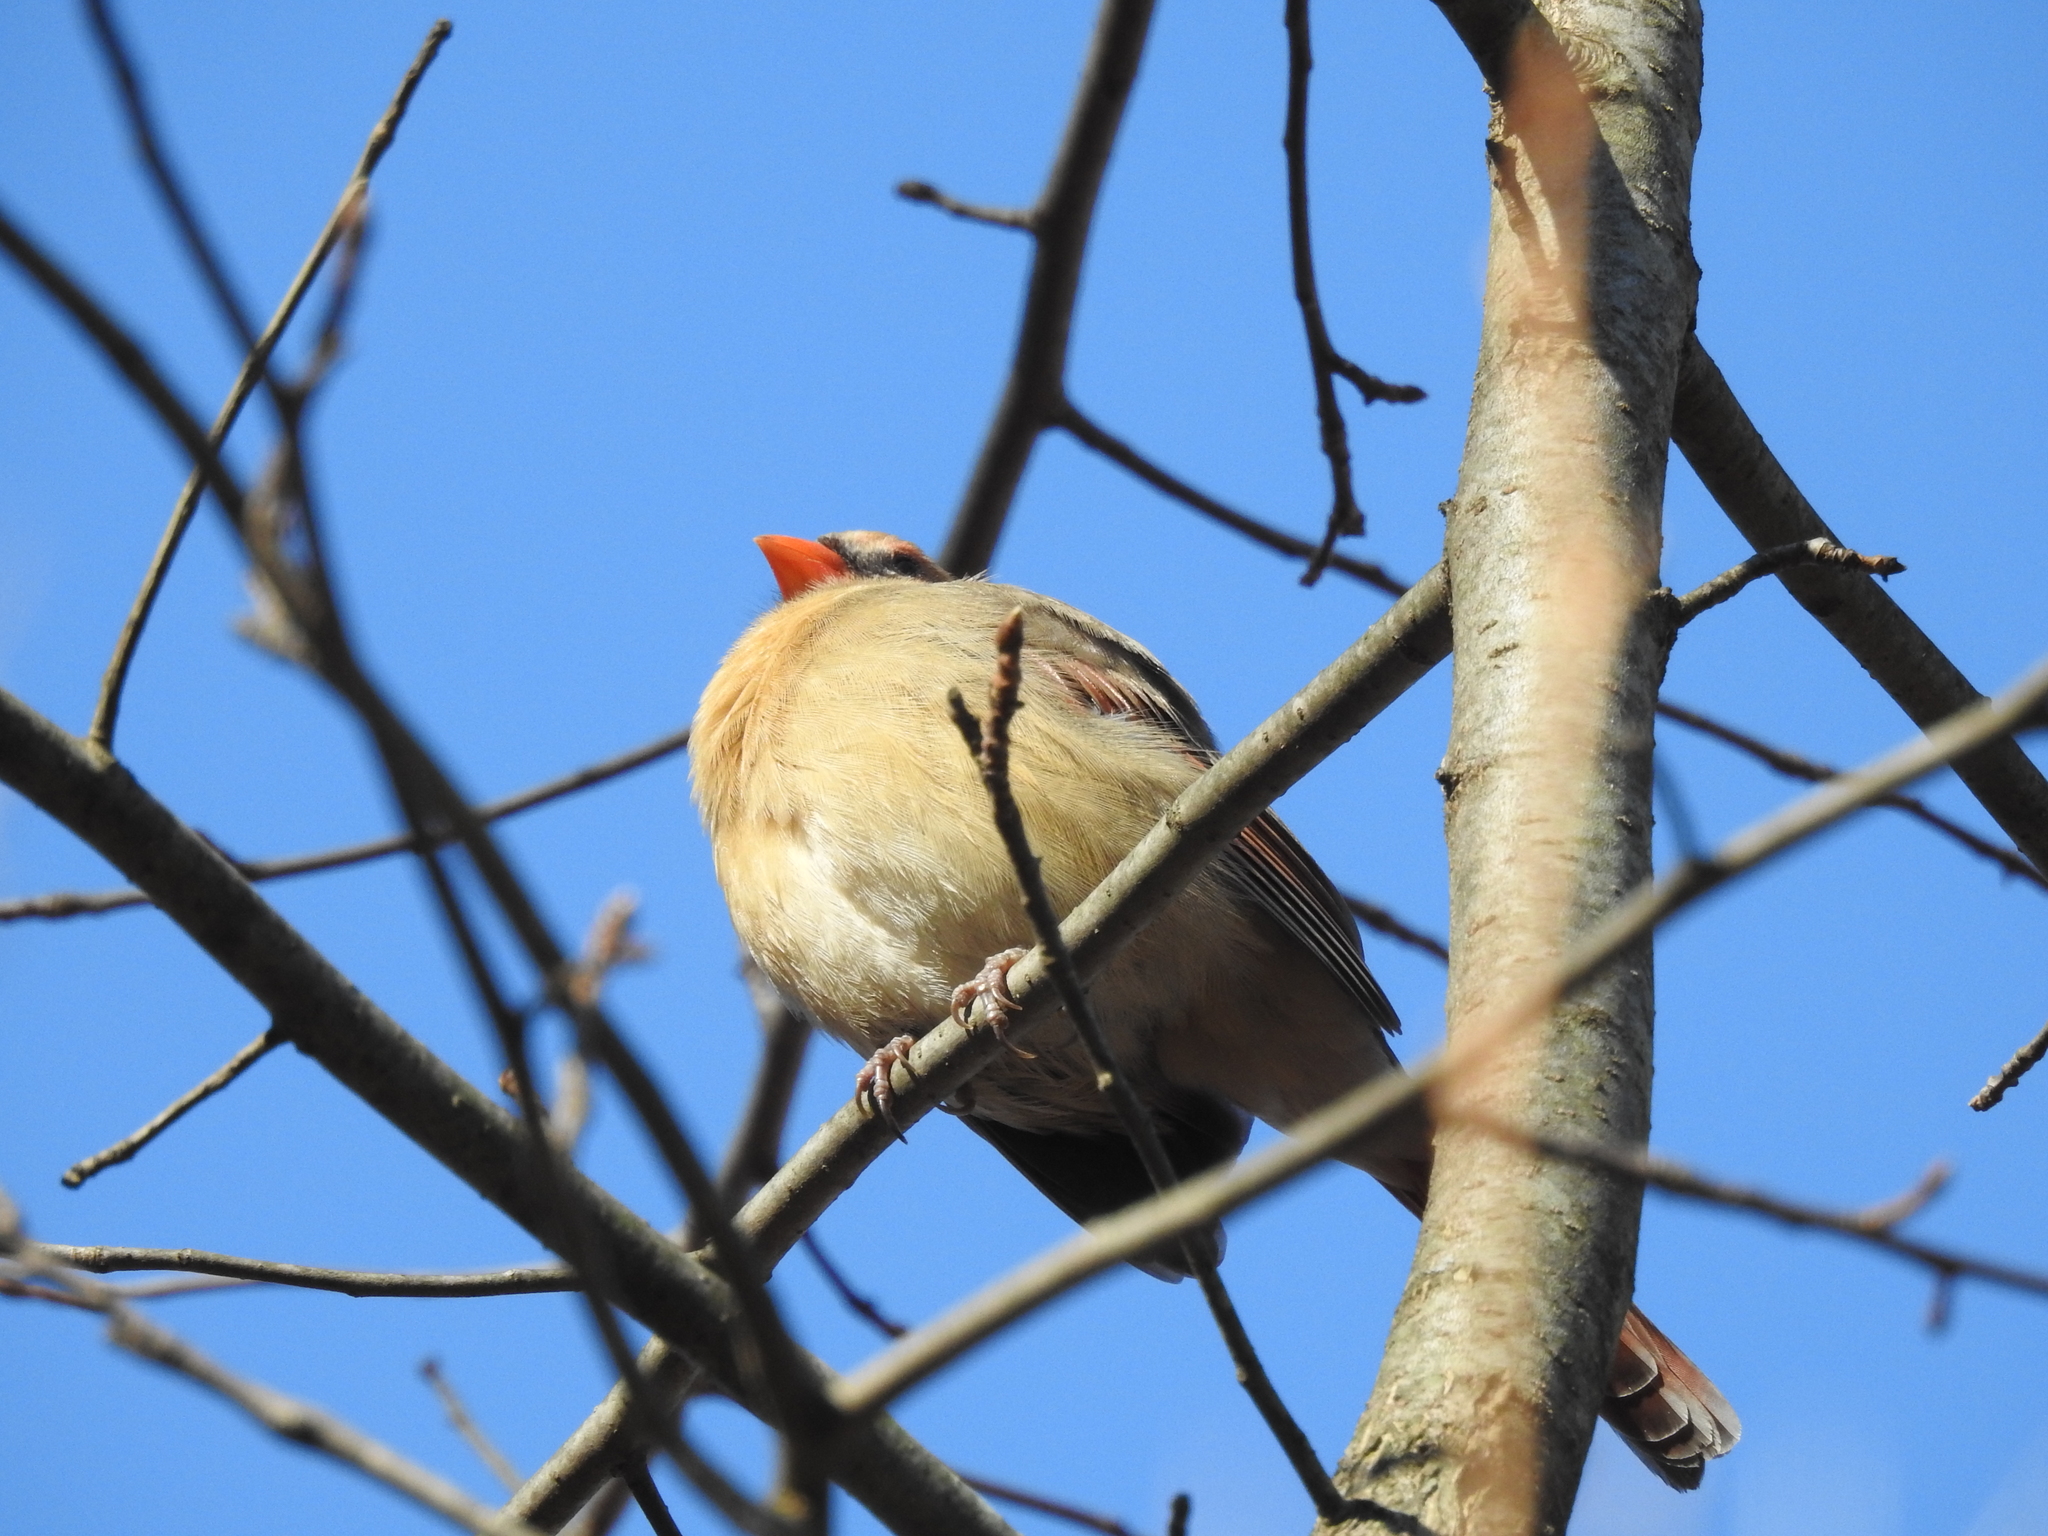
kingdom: Animalia
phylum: Chordata
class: Aves
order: Passeriformes
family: Cardinalidae
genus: Cardinalis
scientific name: Cardinalis cardinalis
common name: Northern cardinal
